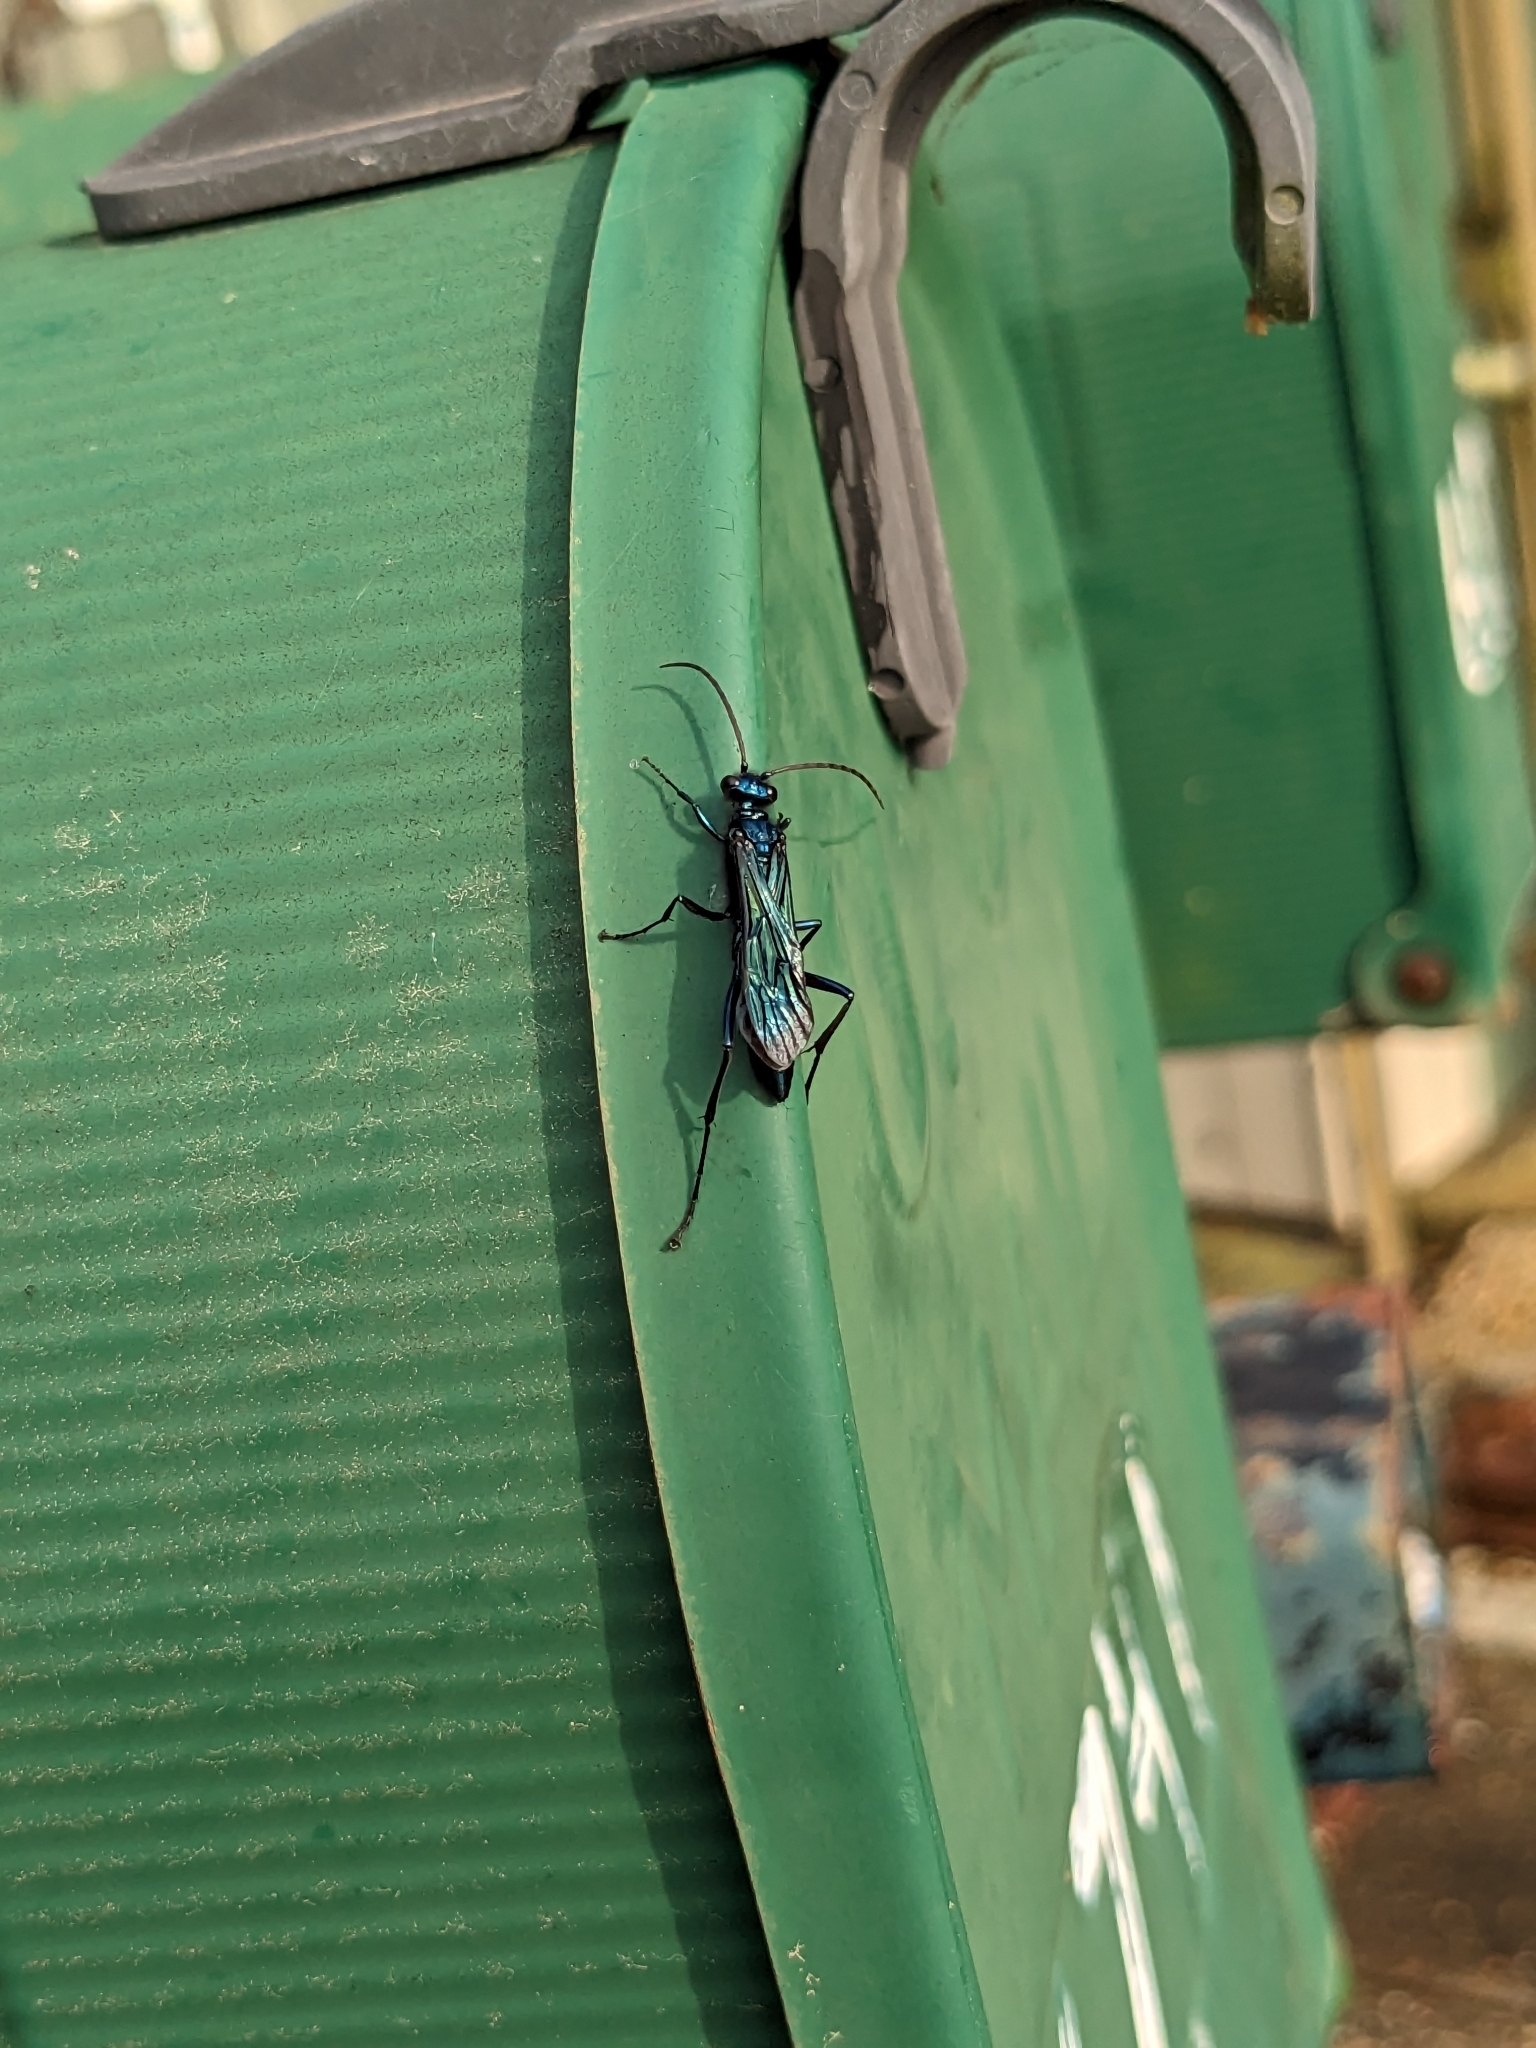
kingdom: Animalia
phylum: Arthropoda
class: Insecta
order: Hymenoptera
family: Sphecidae
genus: Chalybion
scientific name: Chalybion californicum
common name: Mud dauber
